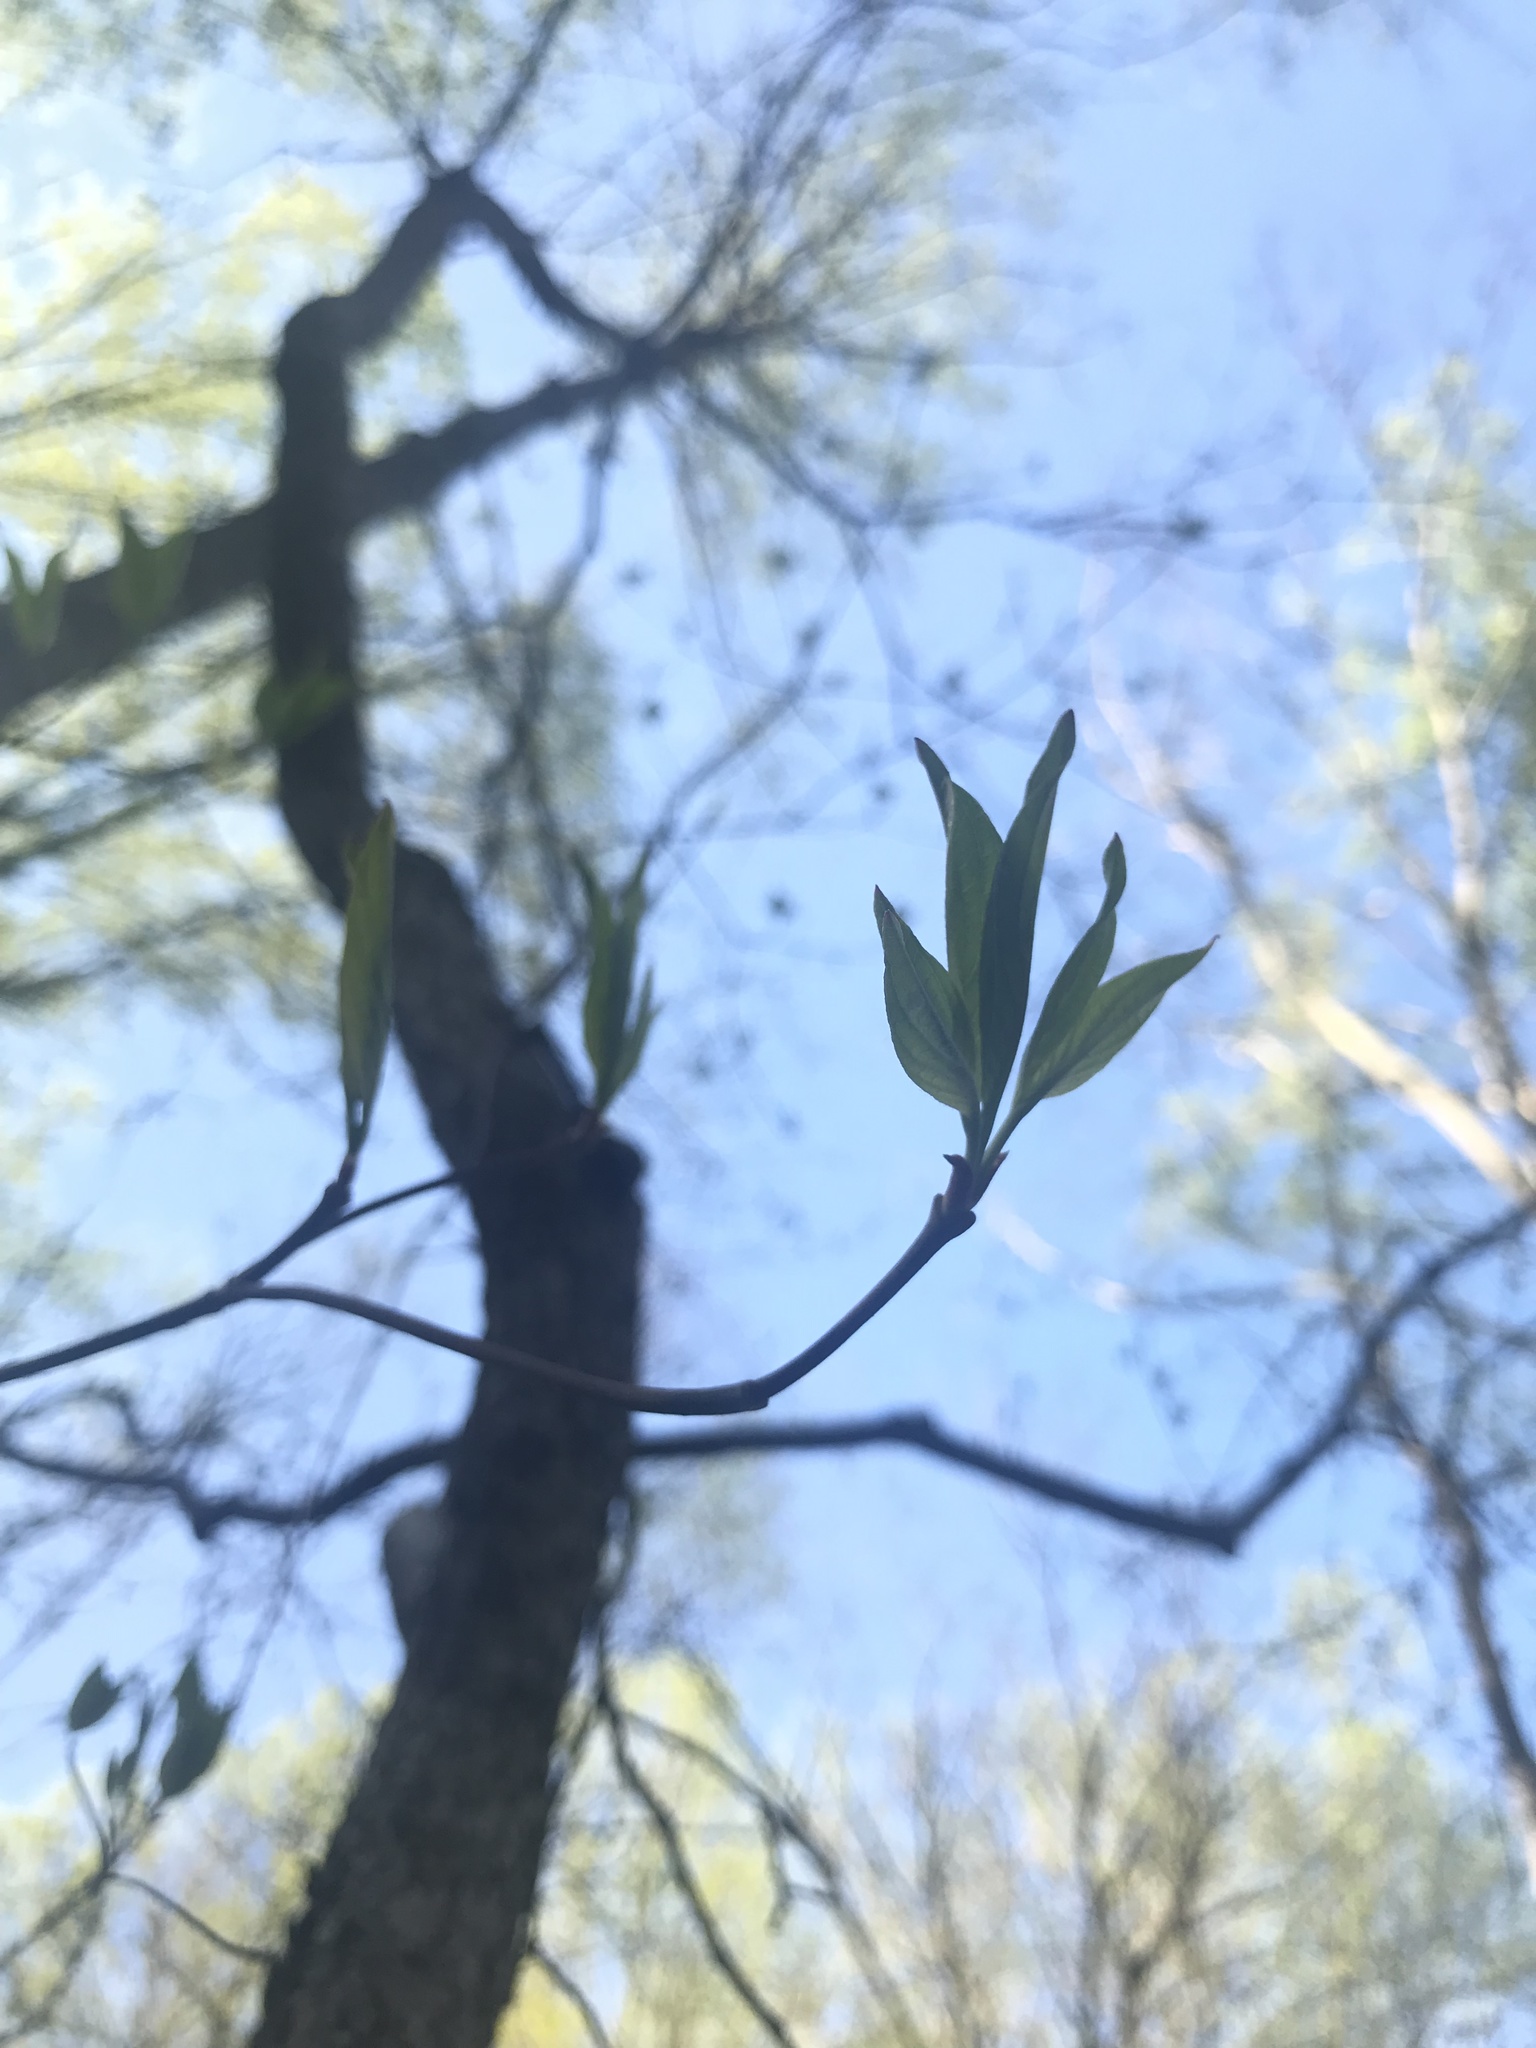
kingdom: Plantae
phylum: Tracheophyta
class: Magnoliopsida
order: Cornales
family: Cornaceae
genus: Cornus
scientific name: Cornus florida
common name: Flowering dogwood
